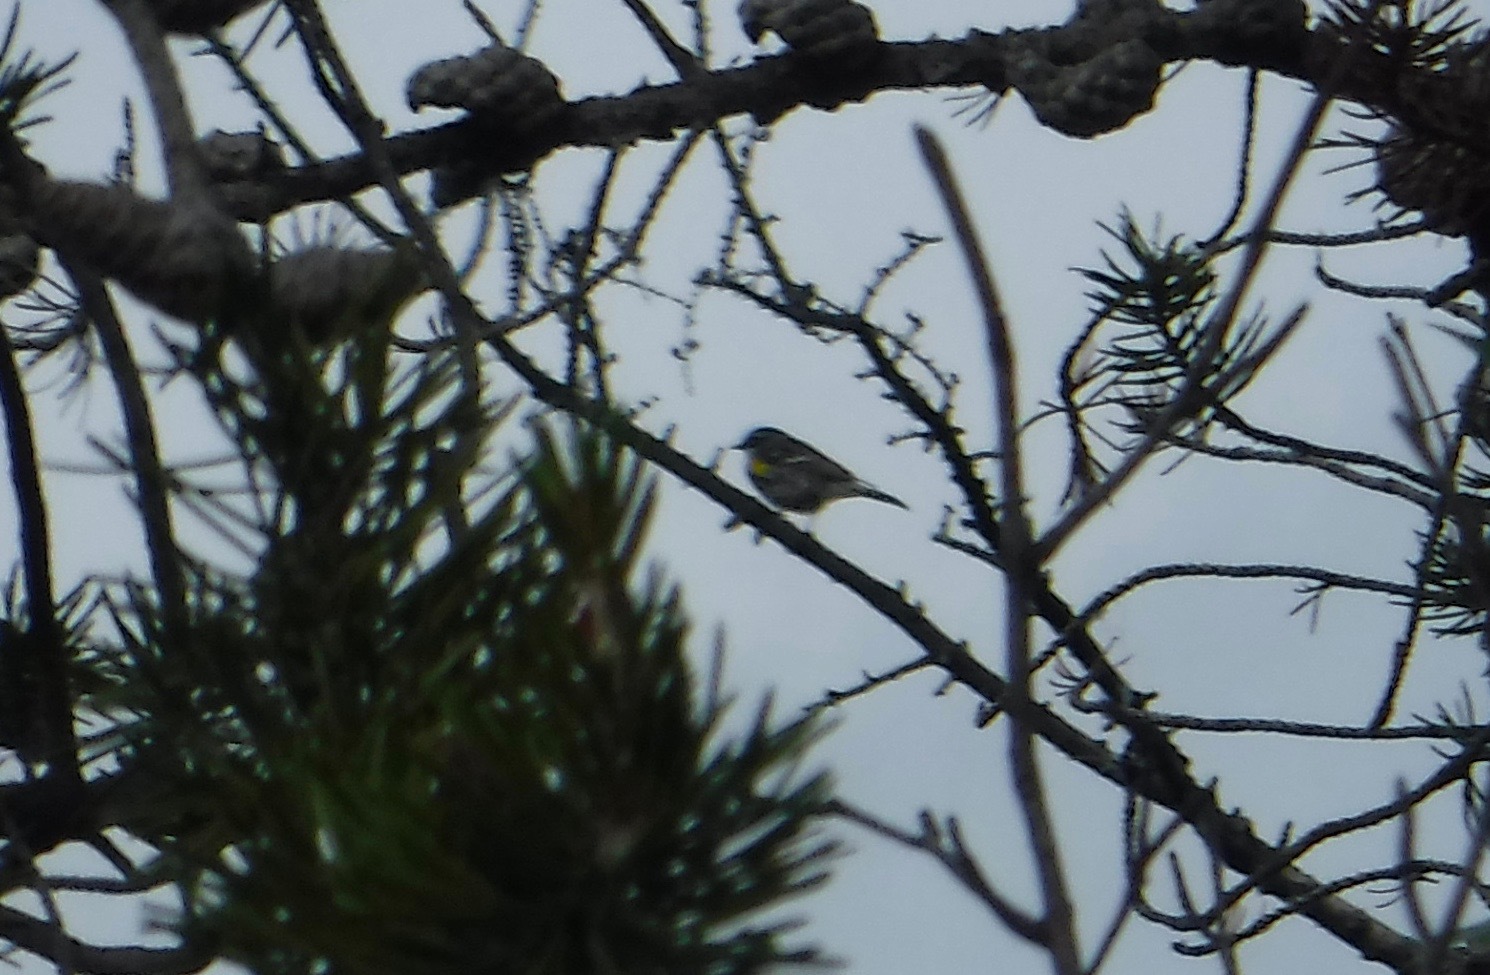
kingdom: Animalia
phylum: Chordata
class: Aves
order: Passeriformes
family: Parulidae
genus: Setophaga
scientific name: Setophaga coronata
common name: Myrtle warbler
